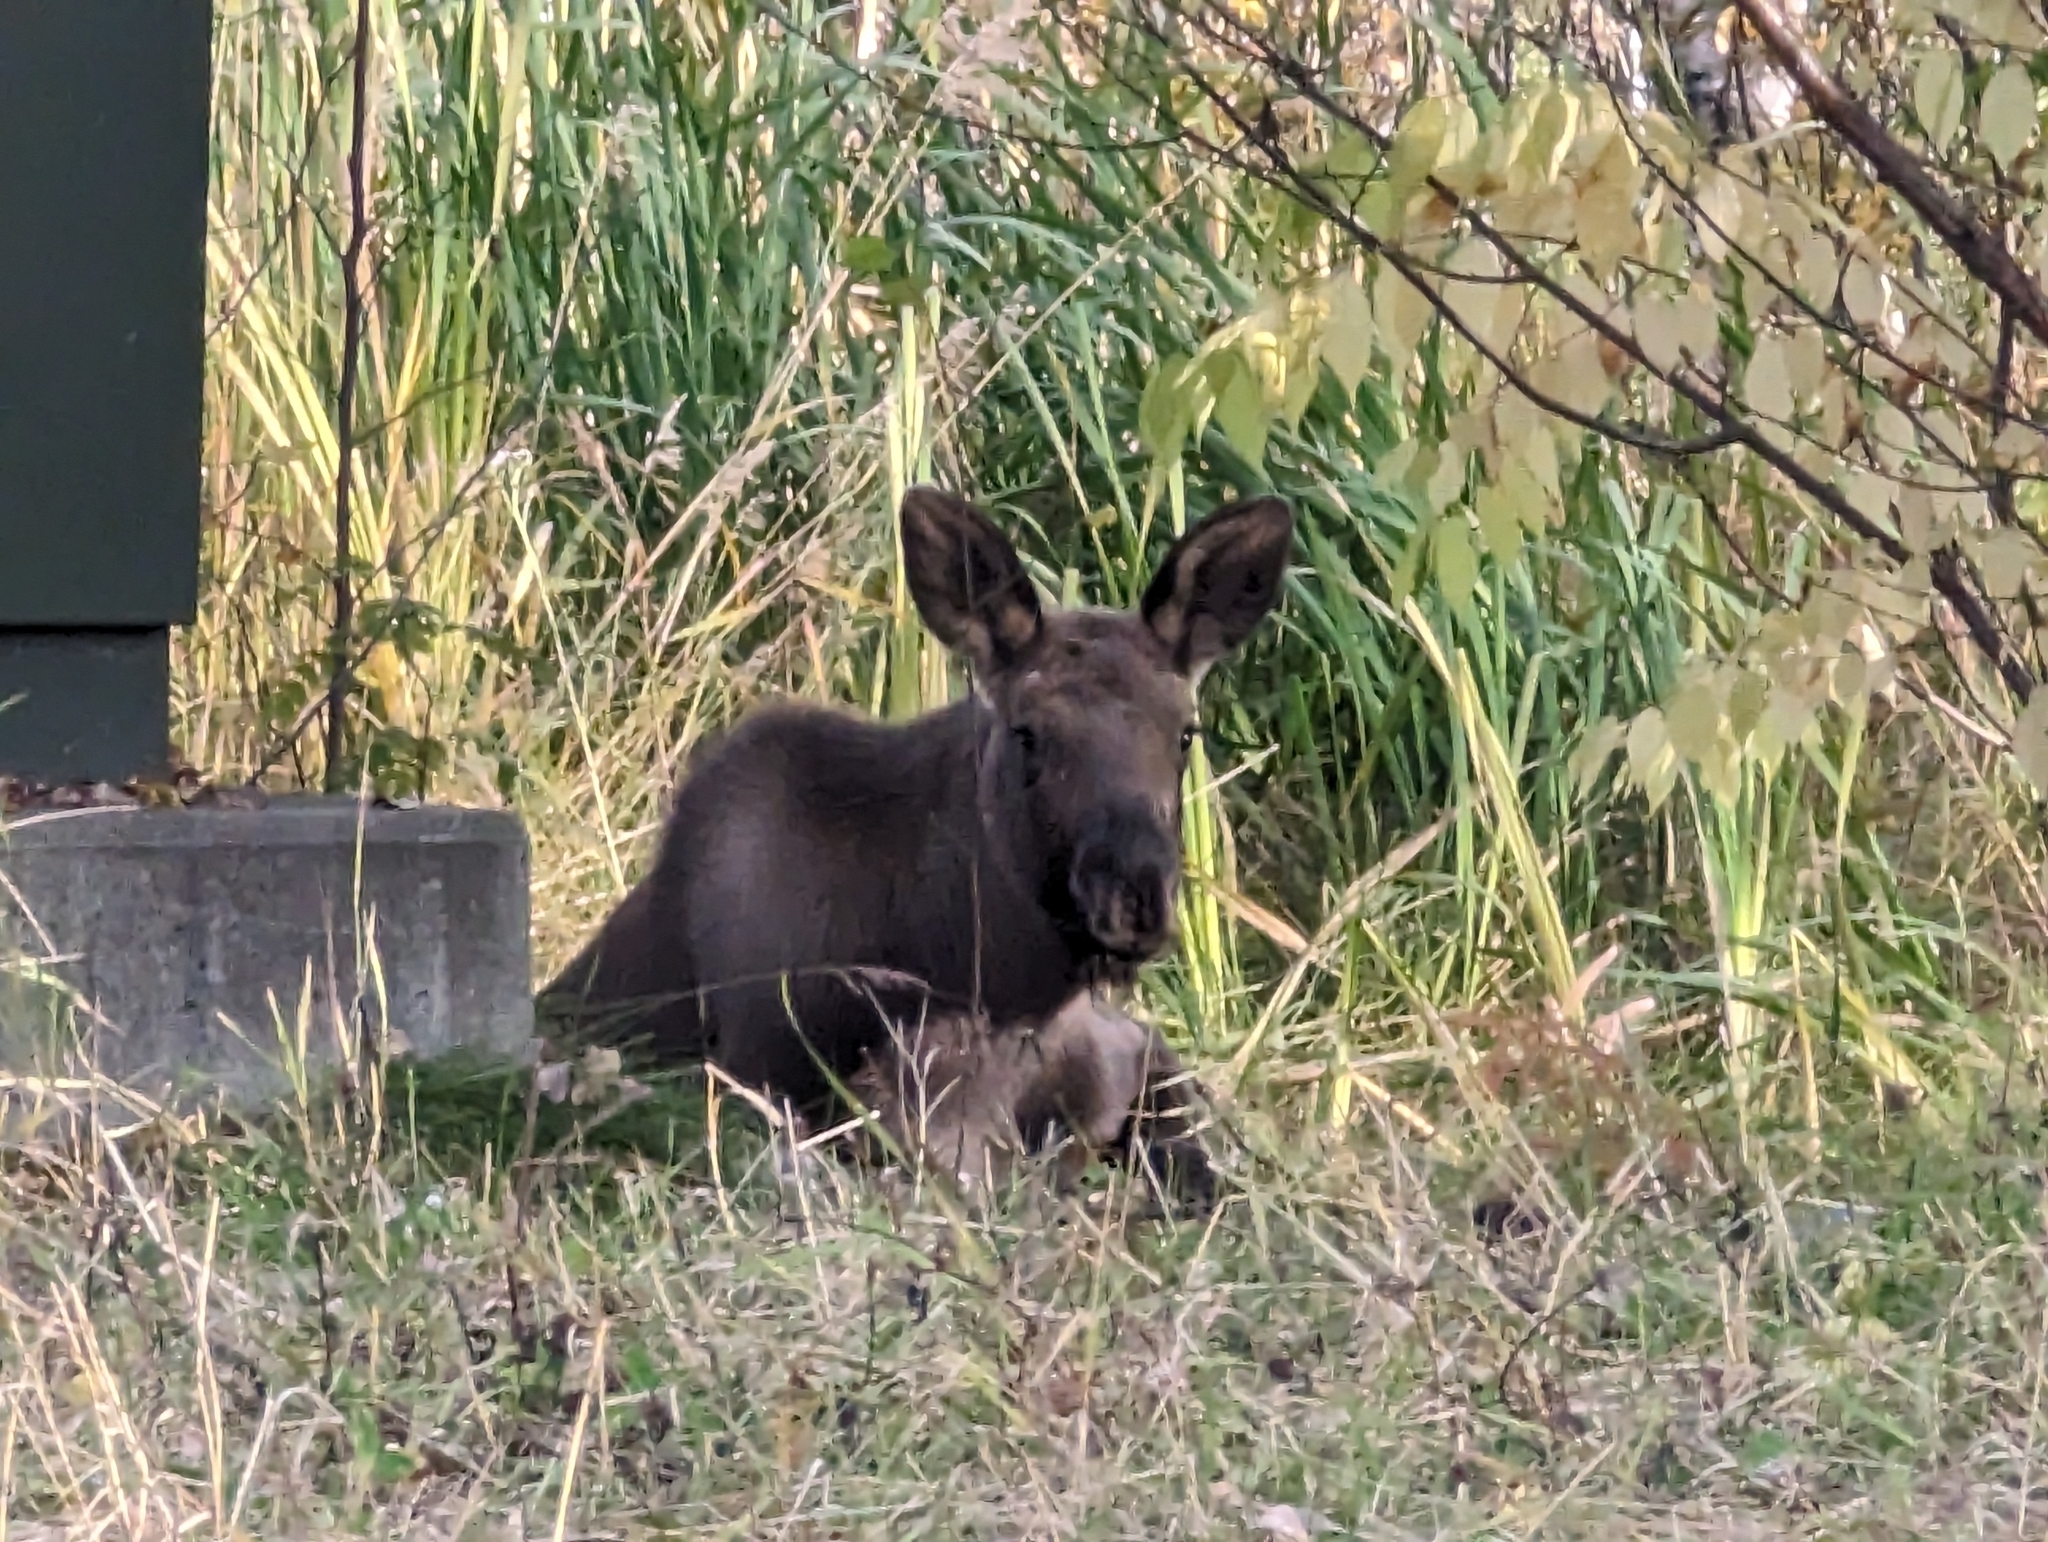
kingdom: Animalia
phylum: Chordata
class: Mammalia
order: Artiodactyla
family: Cervidae
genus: Alces
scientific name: Alces alces
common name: Moose
